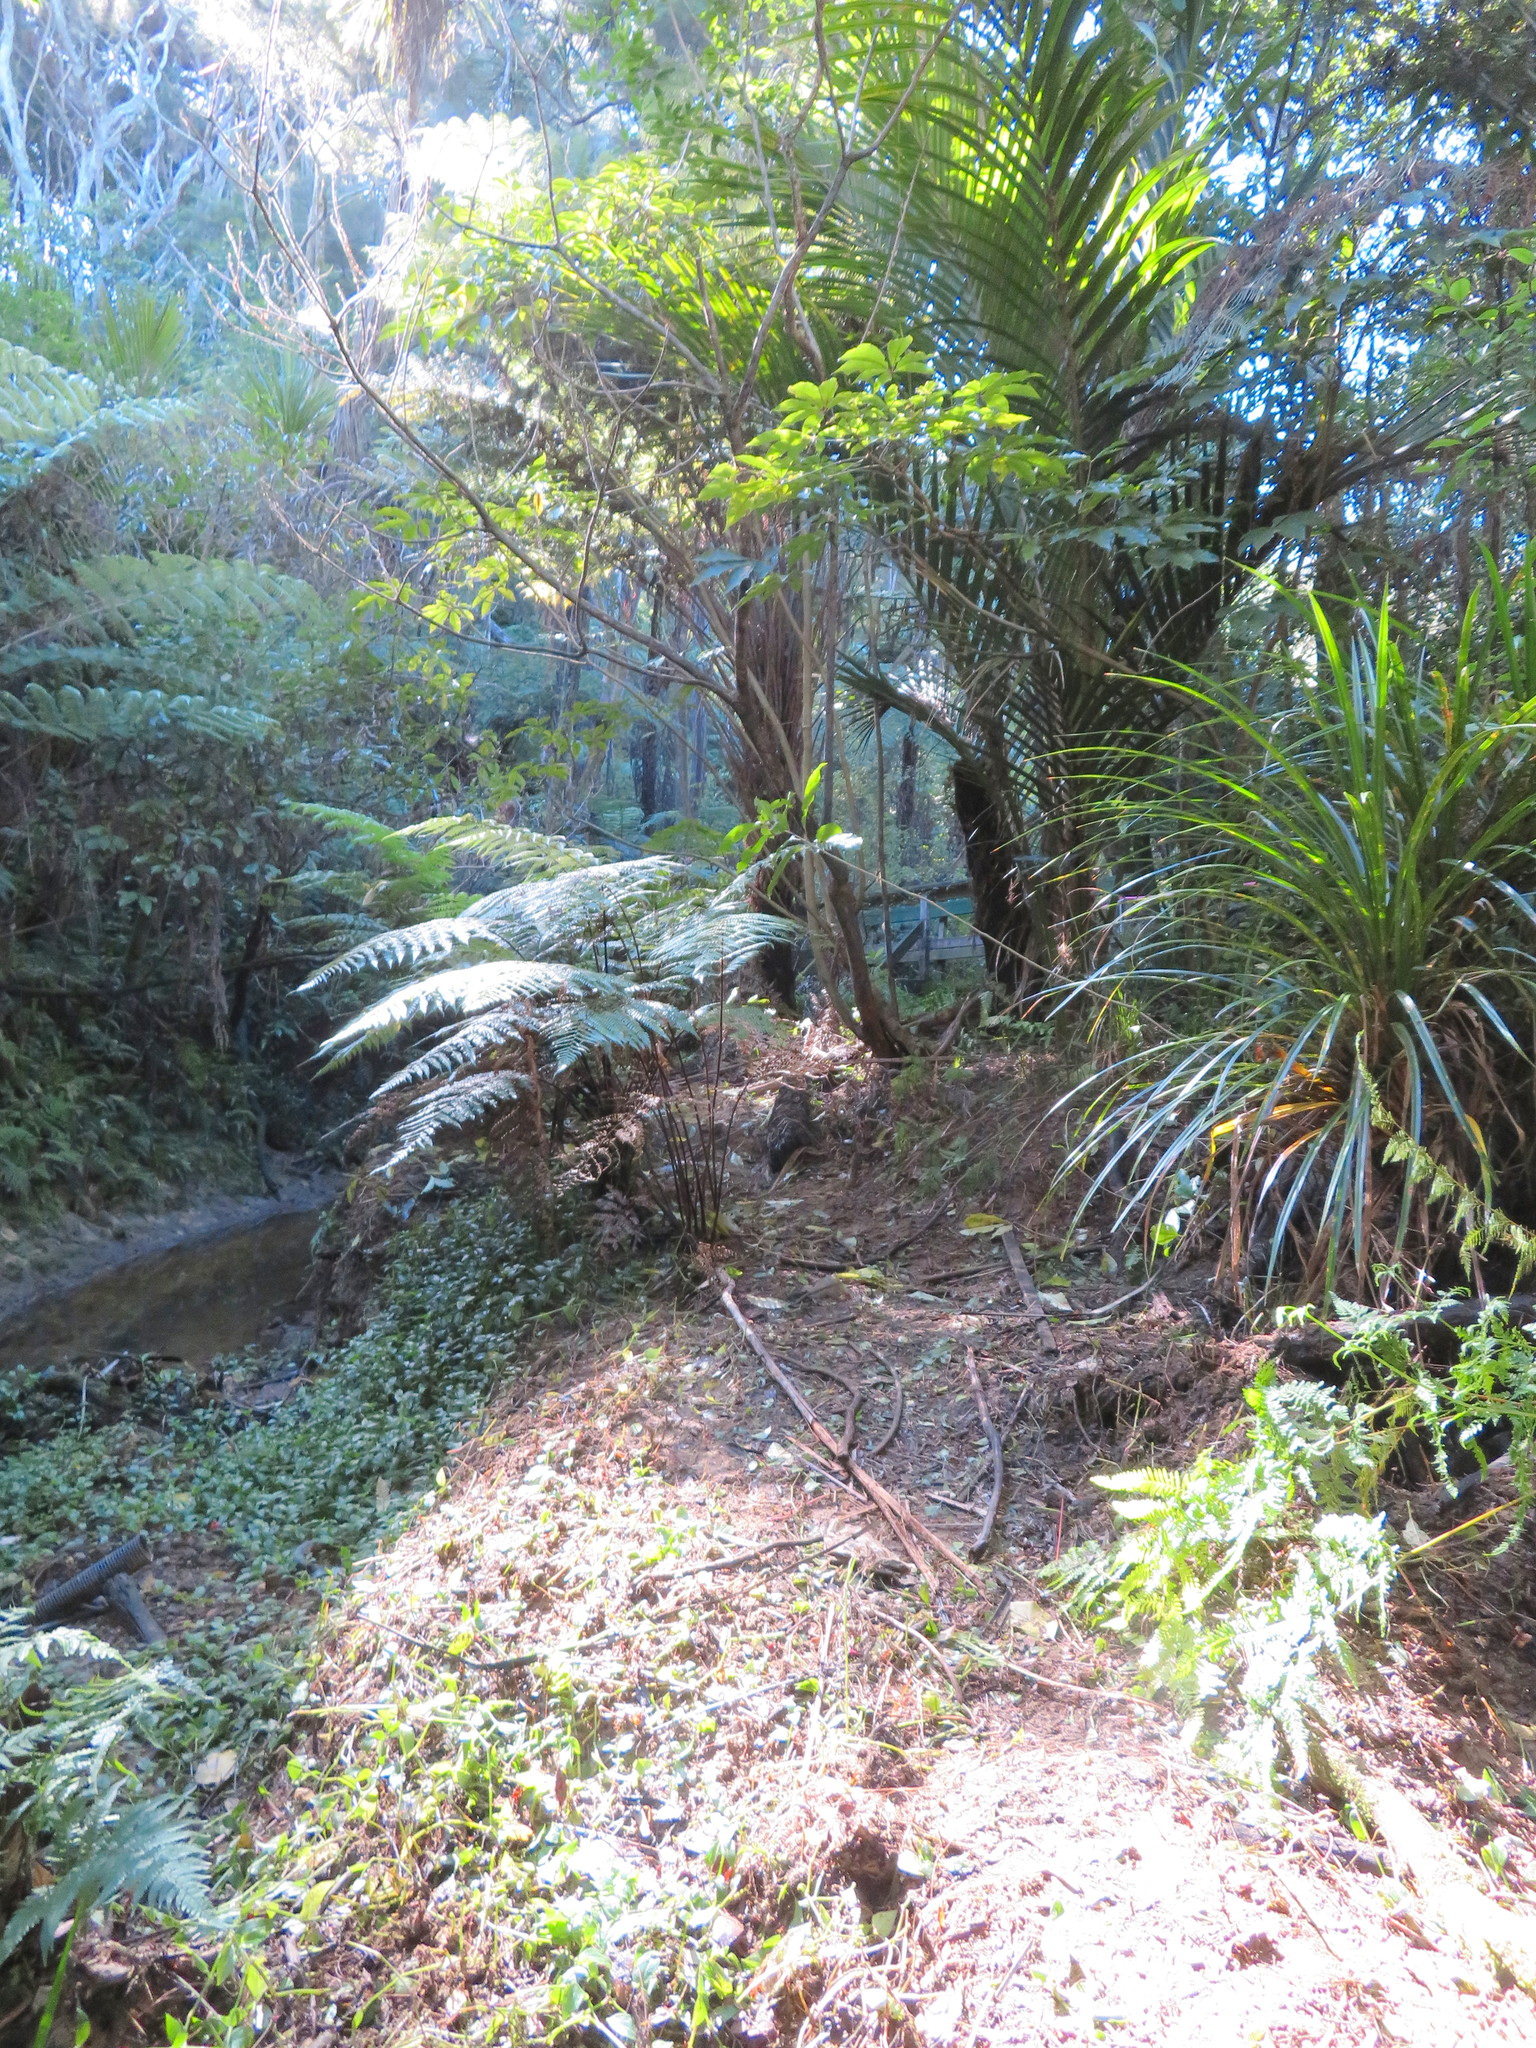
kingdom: Plantae
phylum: Tracheophyta
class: Liliopsida
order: Commelinales
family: Commelinaceae
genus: Tradescantia
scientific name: Tradescantia fluminensis
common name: Wandering-jew
